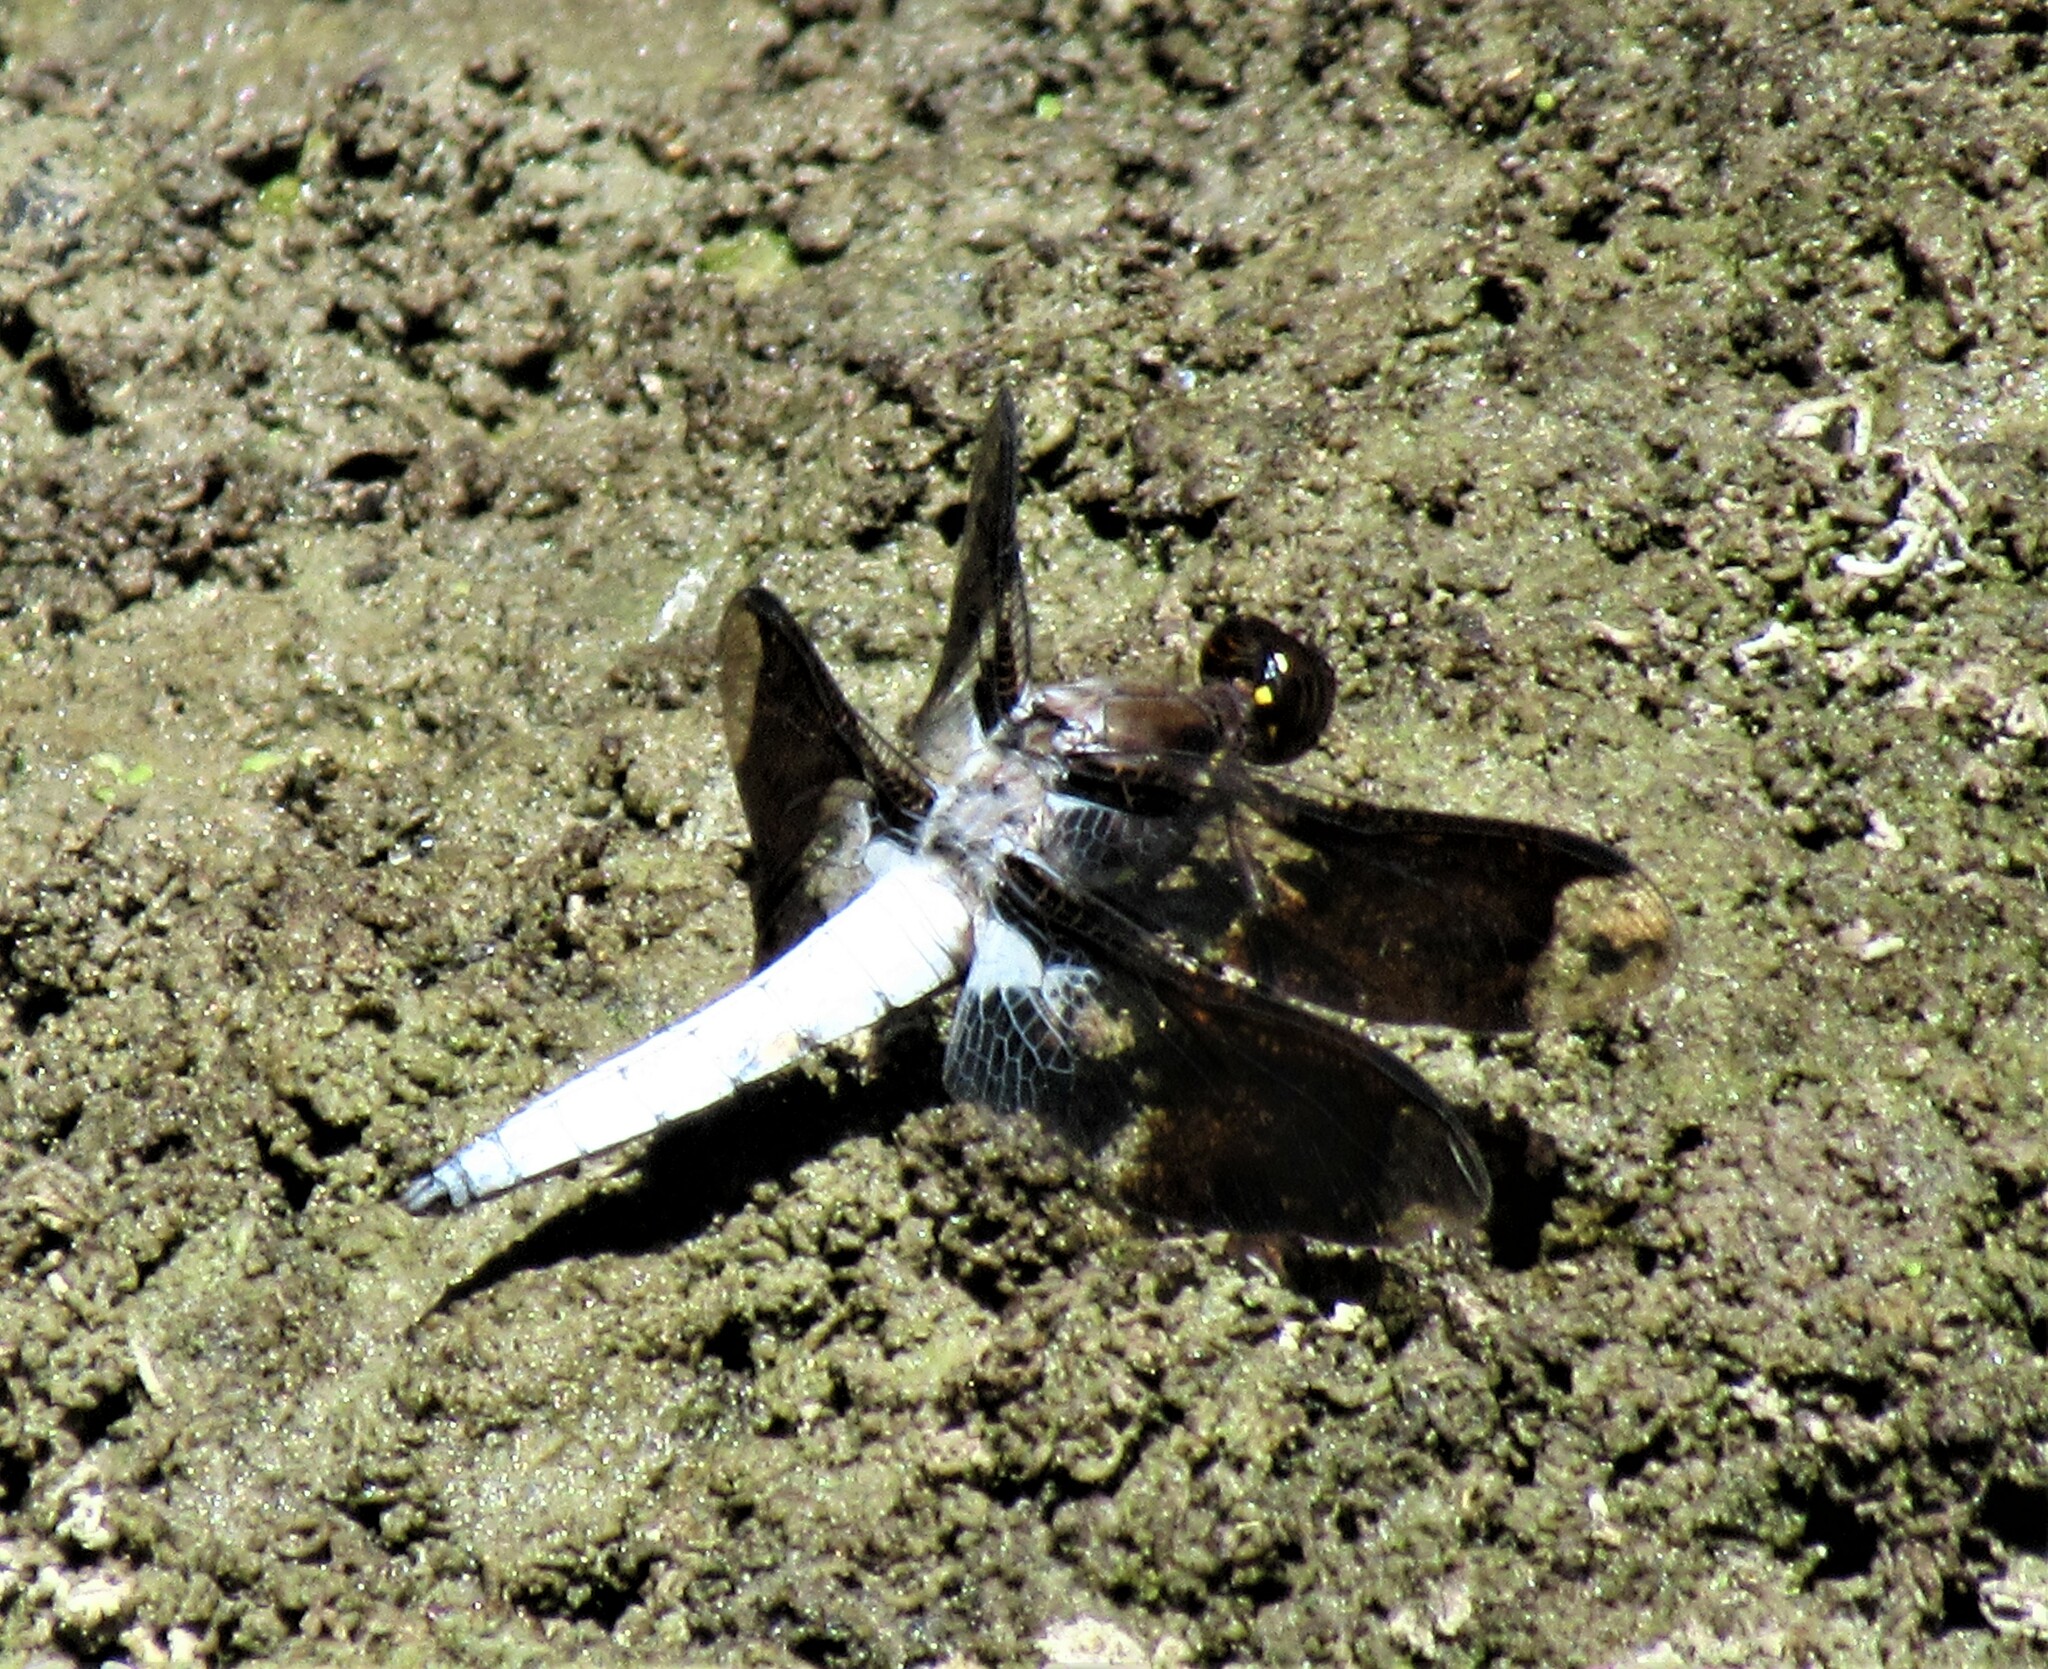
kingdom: Animalia
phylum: Arthropoda
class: Insecta
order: Odonata
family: Libellulidae
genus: Plathemis
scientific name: Plathemis lydia
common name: Common whitetail
